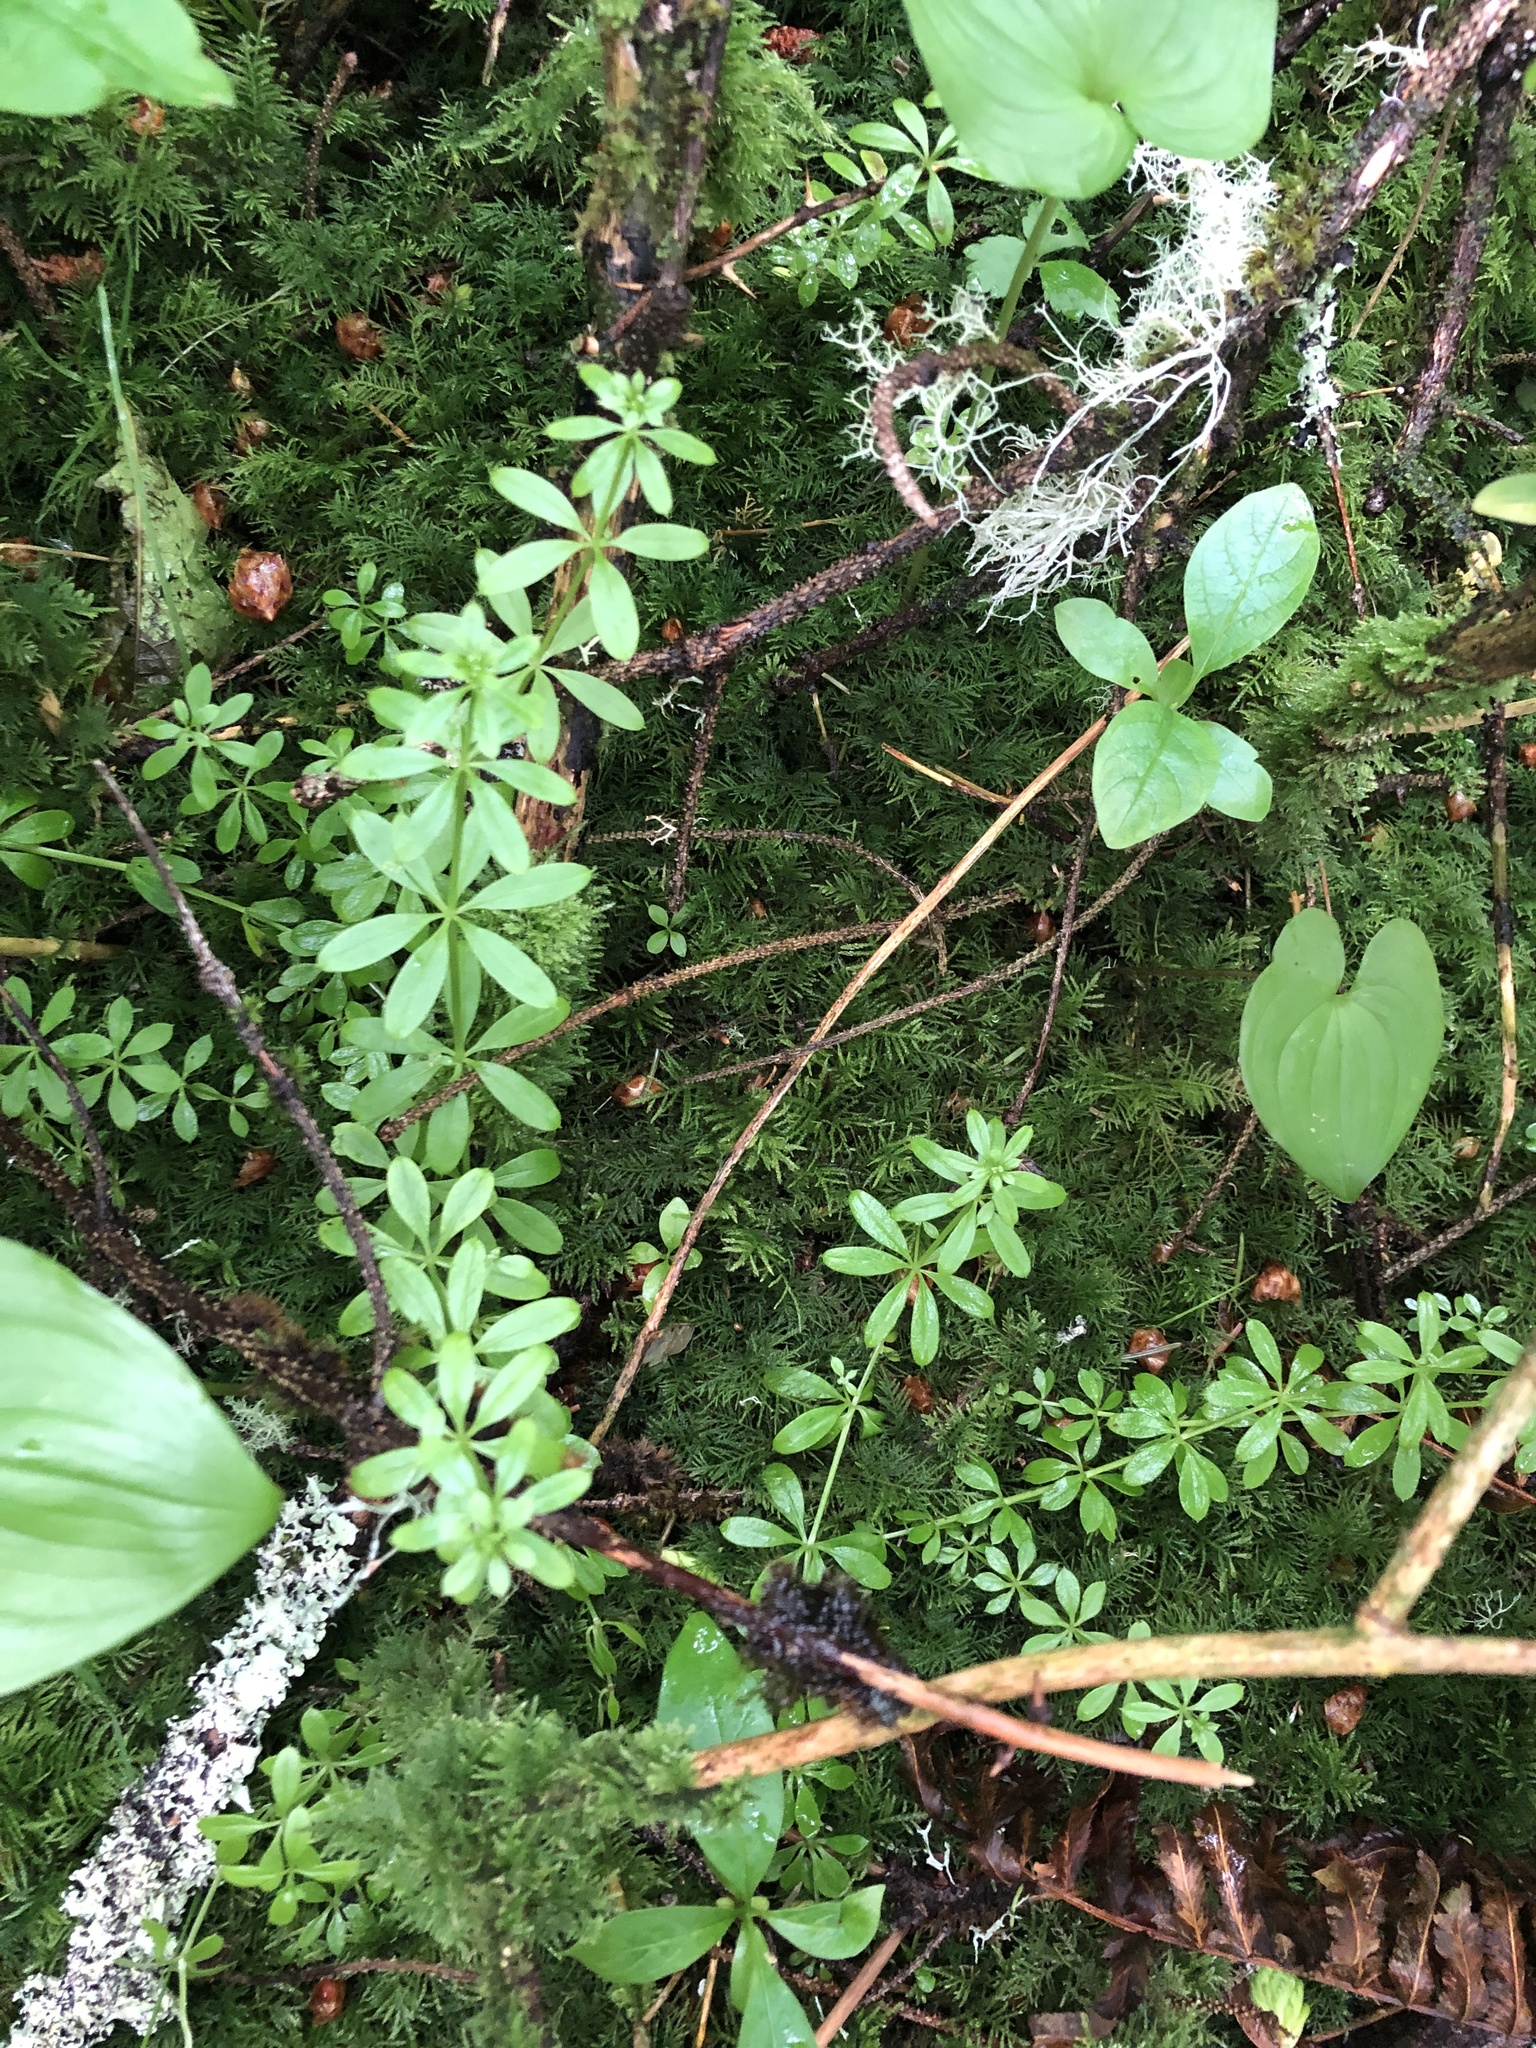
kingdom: Plantae
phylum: Tracheophyta
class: Magnoliopsida
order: Gentianales
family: Rubiaceae
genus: Galium
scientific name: Galium triflorum
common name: Fragrant bedstraw
